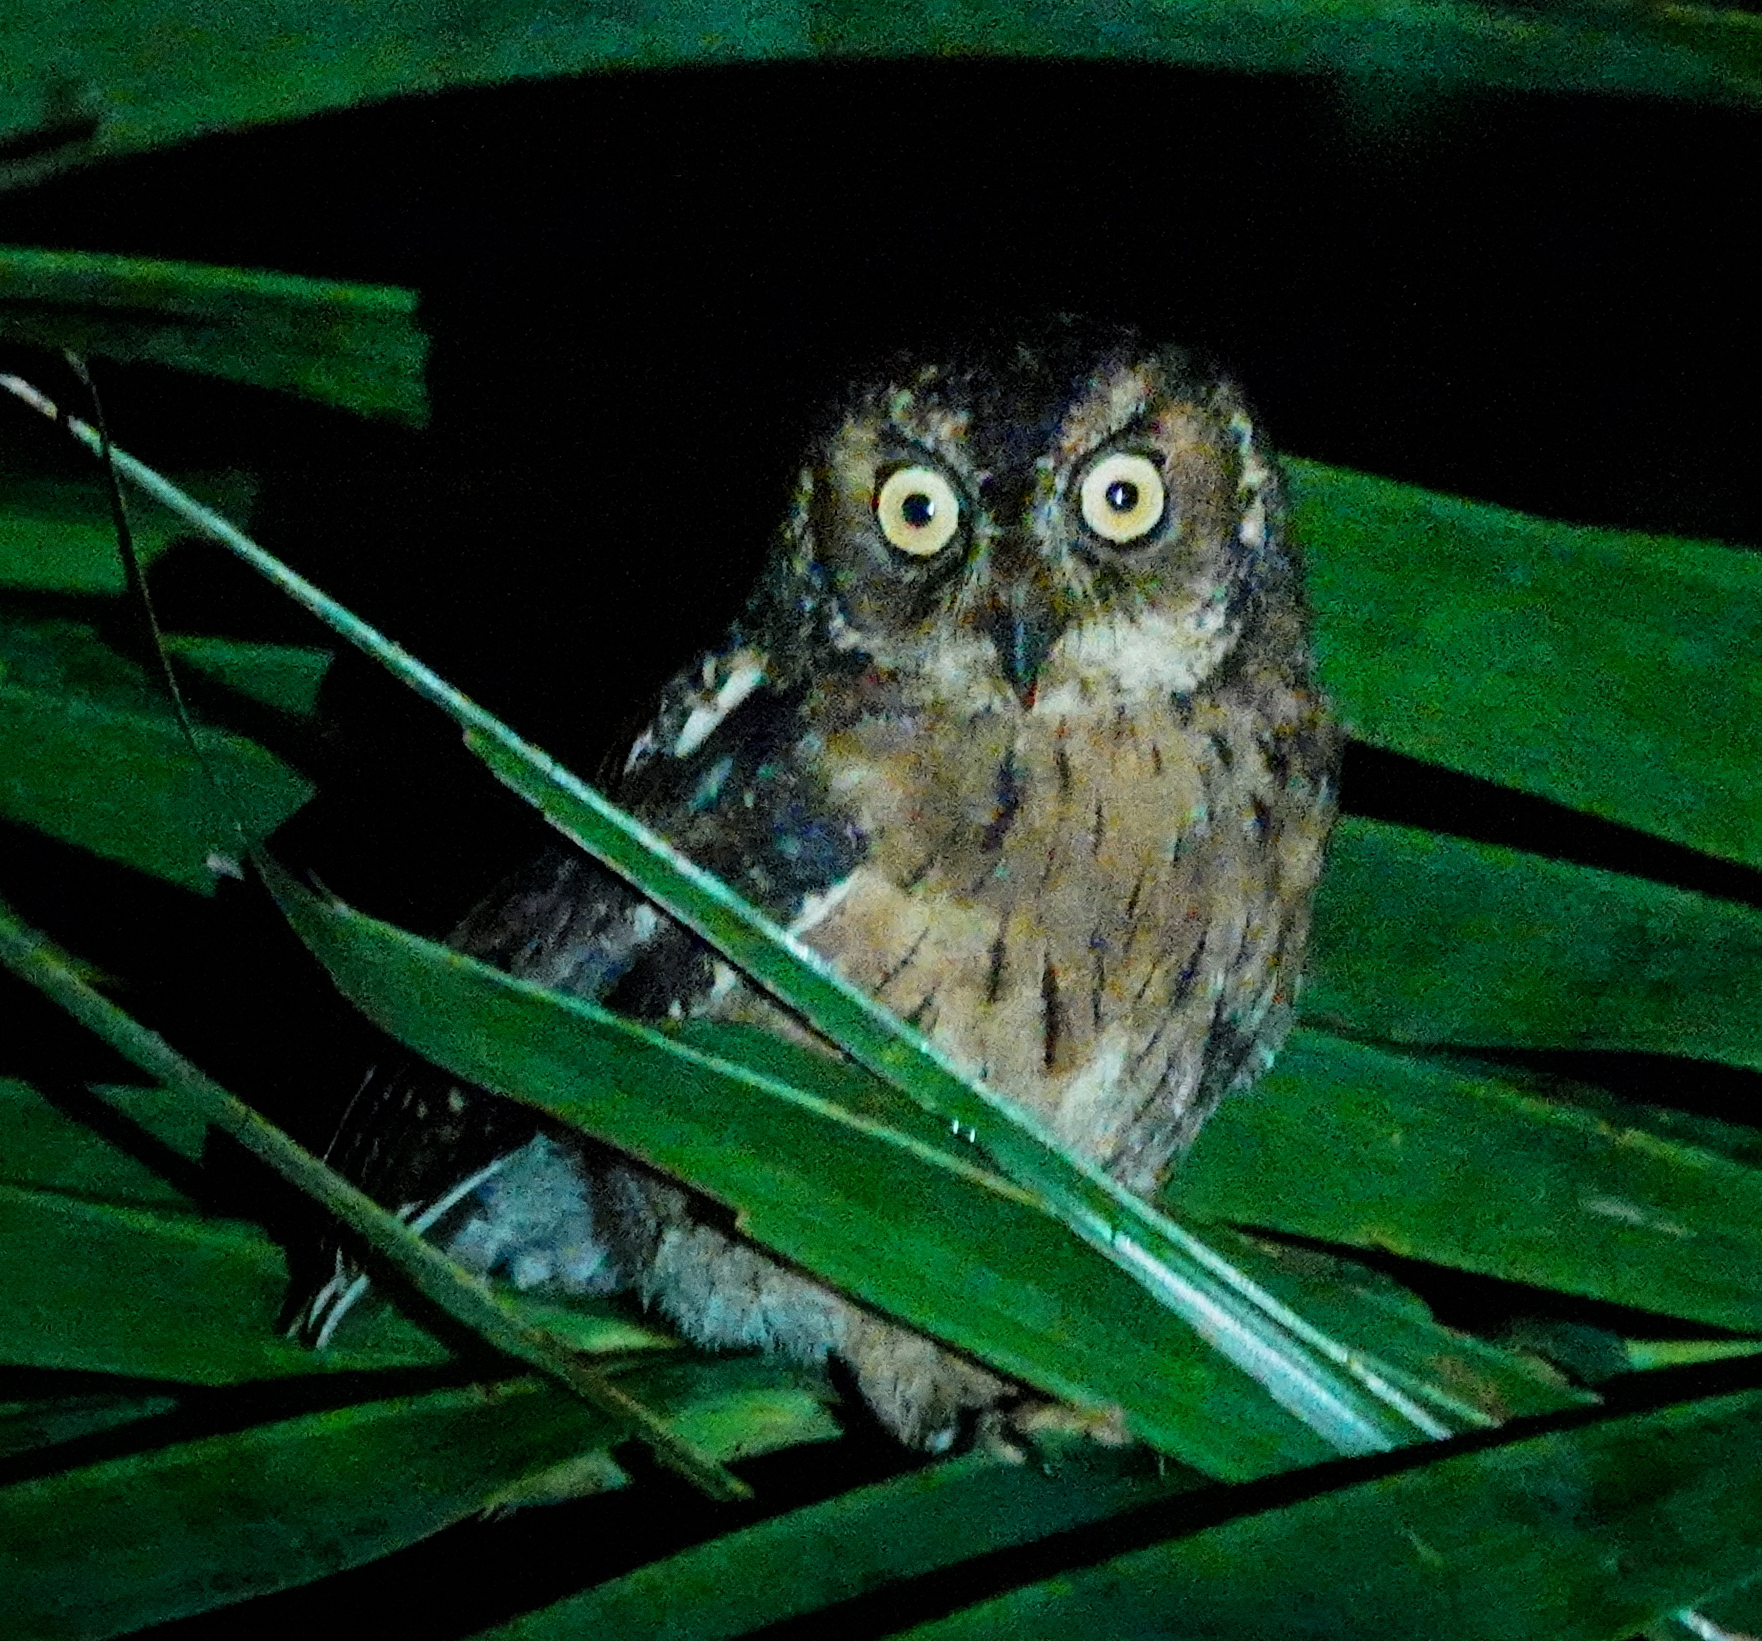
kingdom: Animalia
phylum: Chordata
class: Aves
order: Strigiformes
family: Strigidae
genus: Otus
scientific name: Otus magicus
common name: Moluccan scops owl
